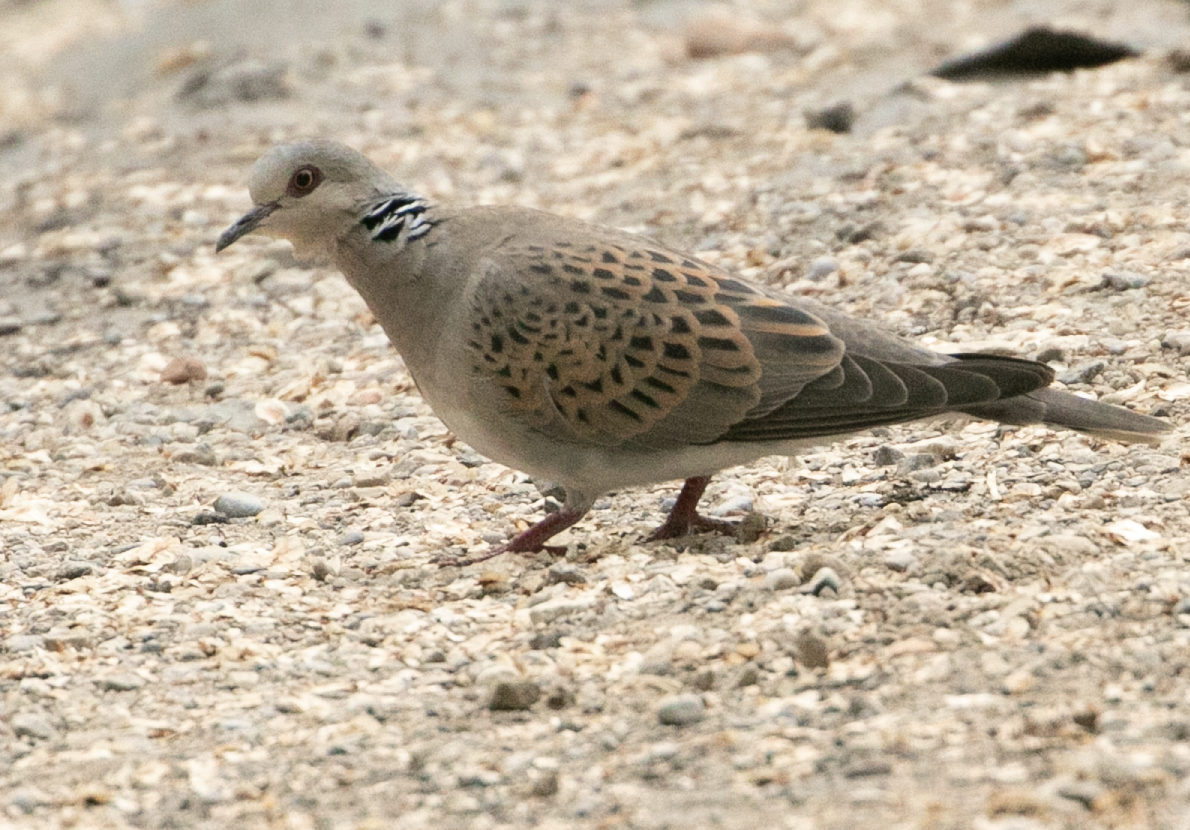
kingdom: Animalia
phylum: Chordata
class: Aves
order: Columbiformes
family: Columbidae
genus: Streptopelia
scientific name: Streptopelia turtur
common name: European turtle dove
